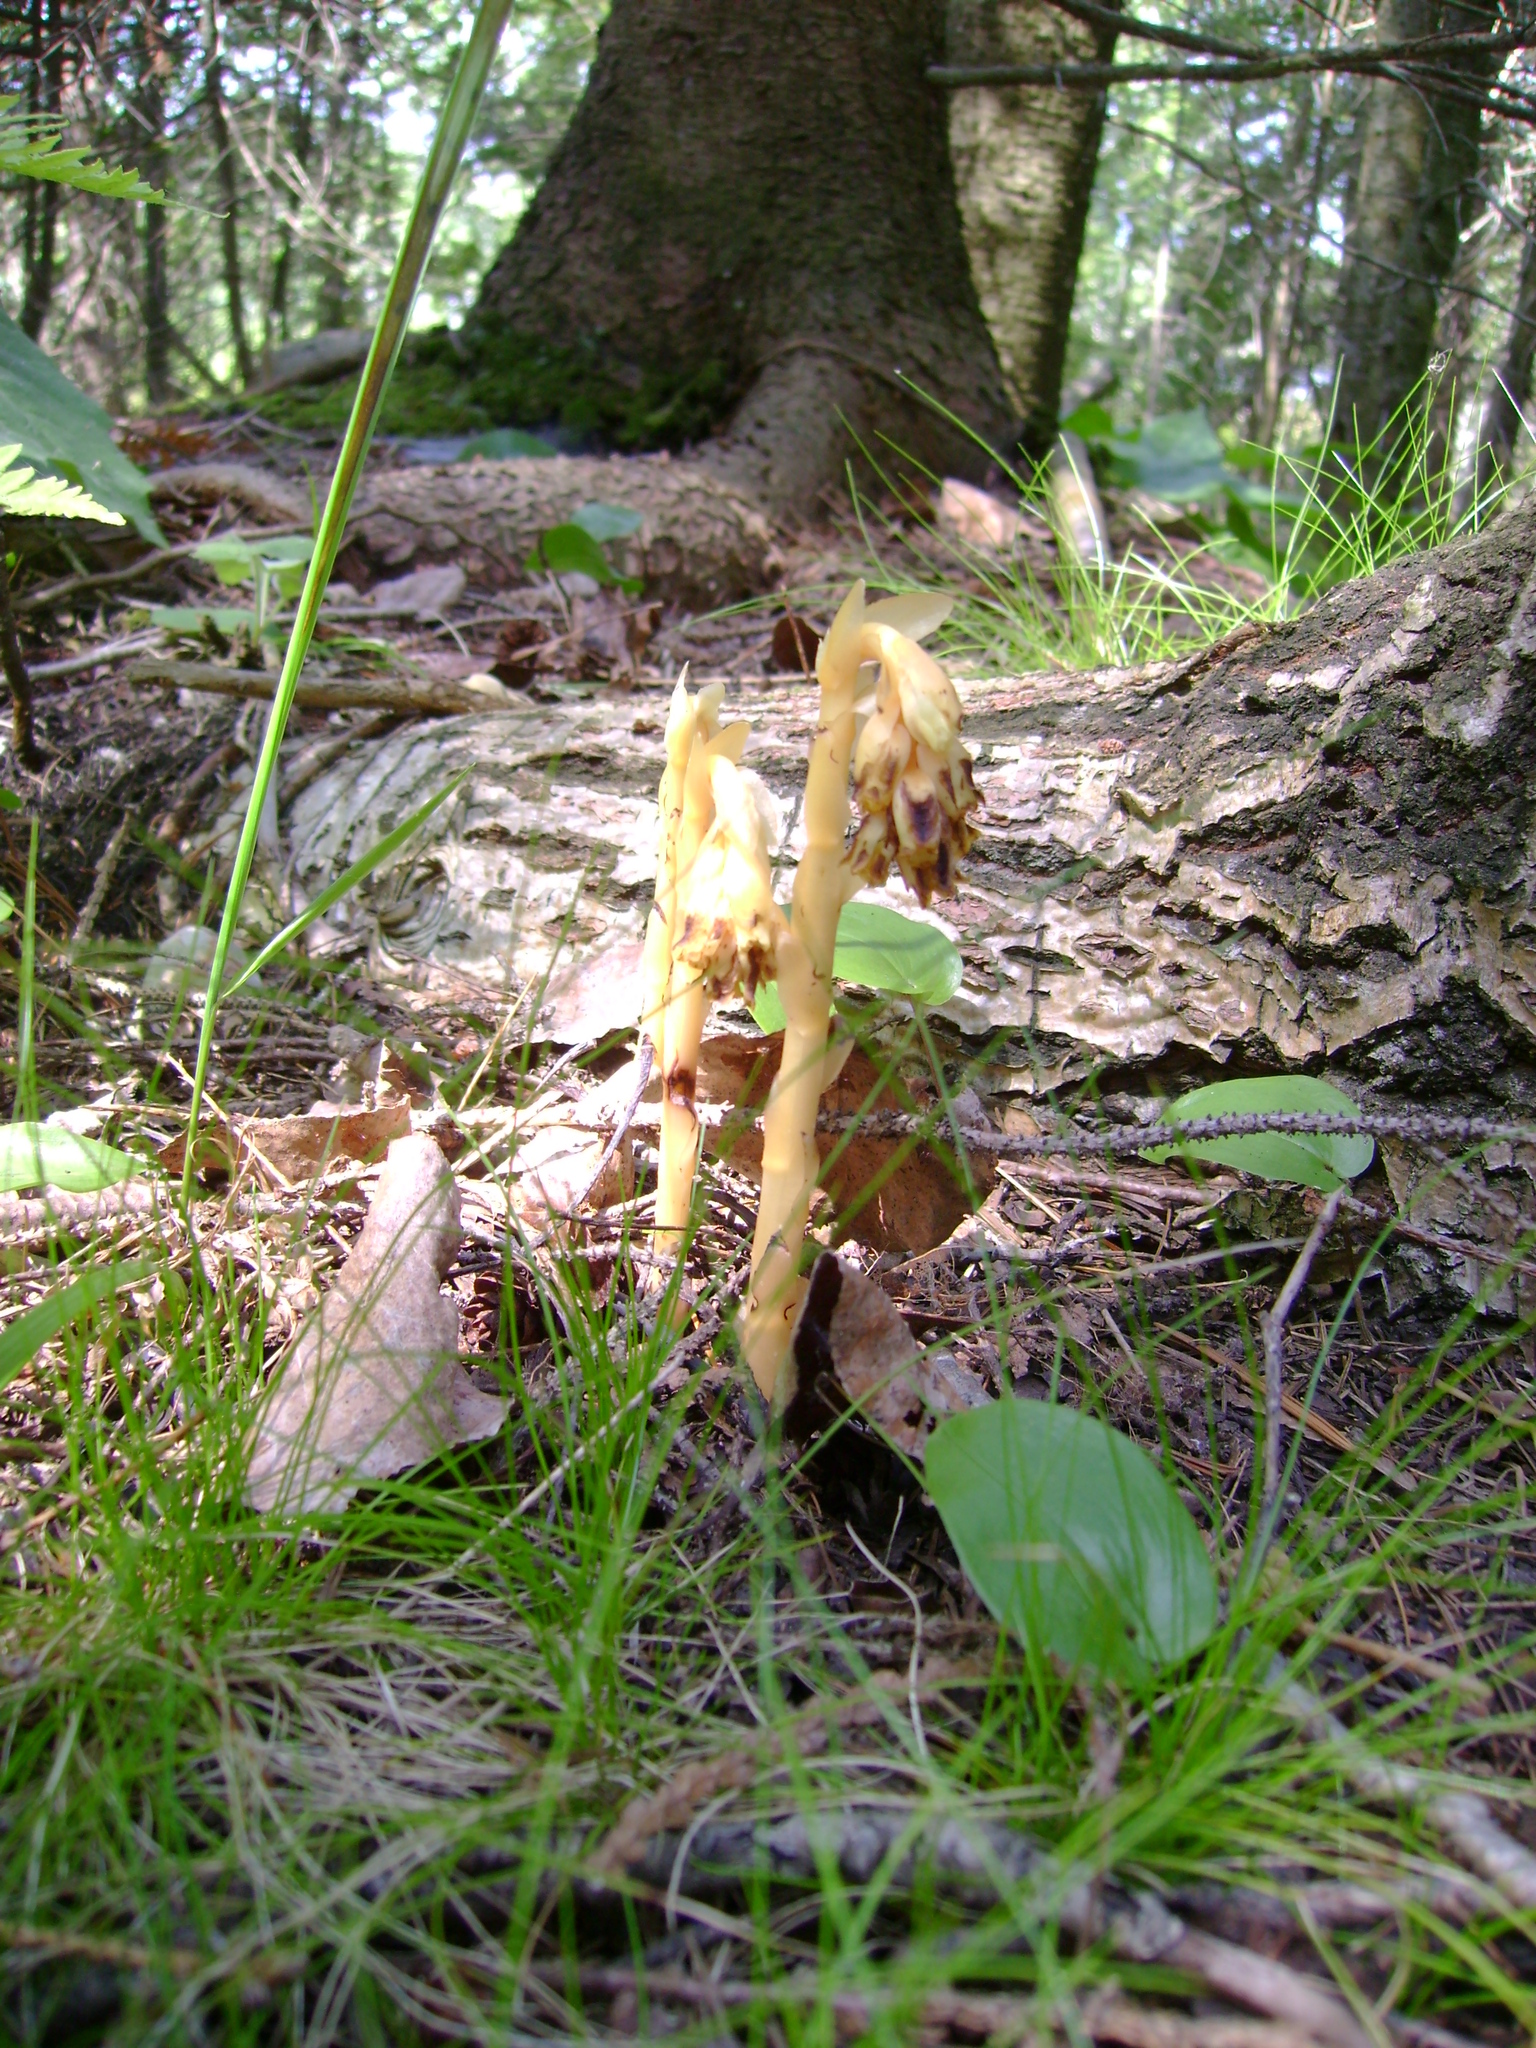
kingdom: Plantae
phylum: Tracheophyta
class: Magnoliopsida
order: Ericales
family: Ericaceae
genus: Hypopitys
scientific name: Hypopitys monotropa
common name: Yellow bird's-nest
